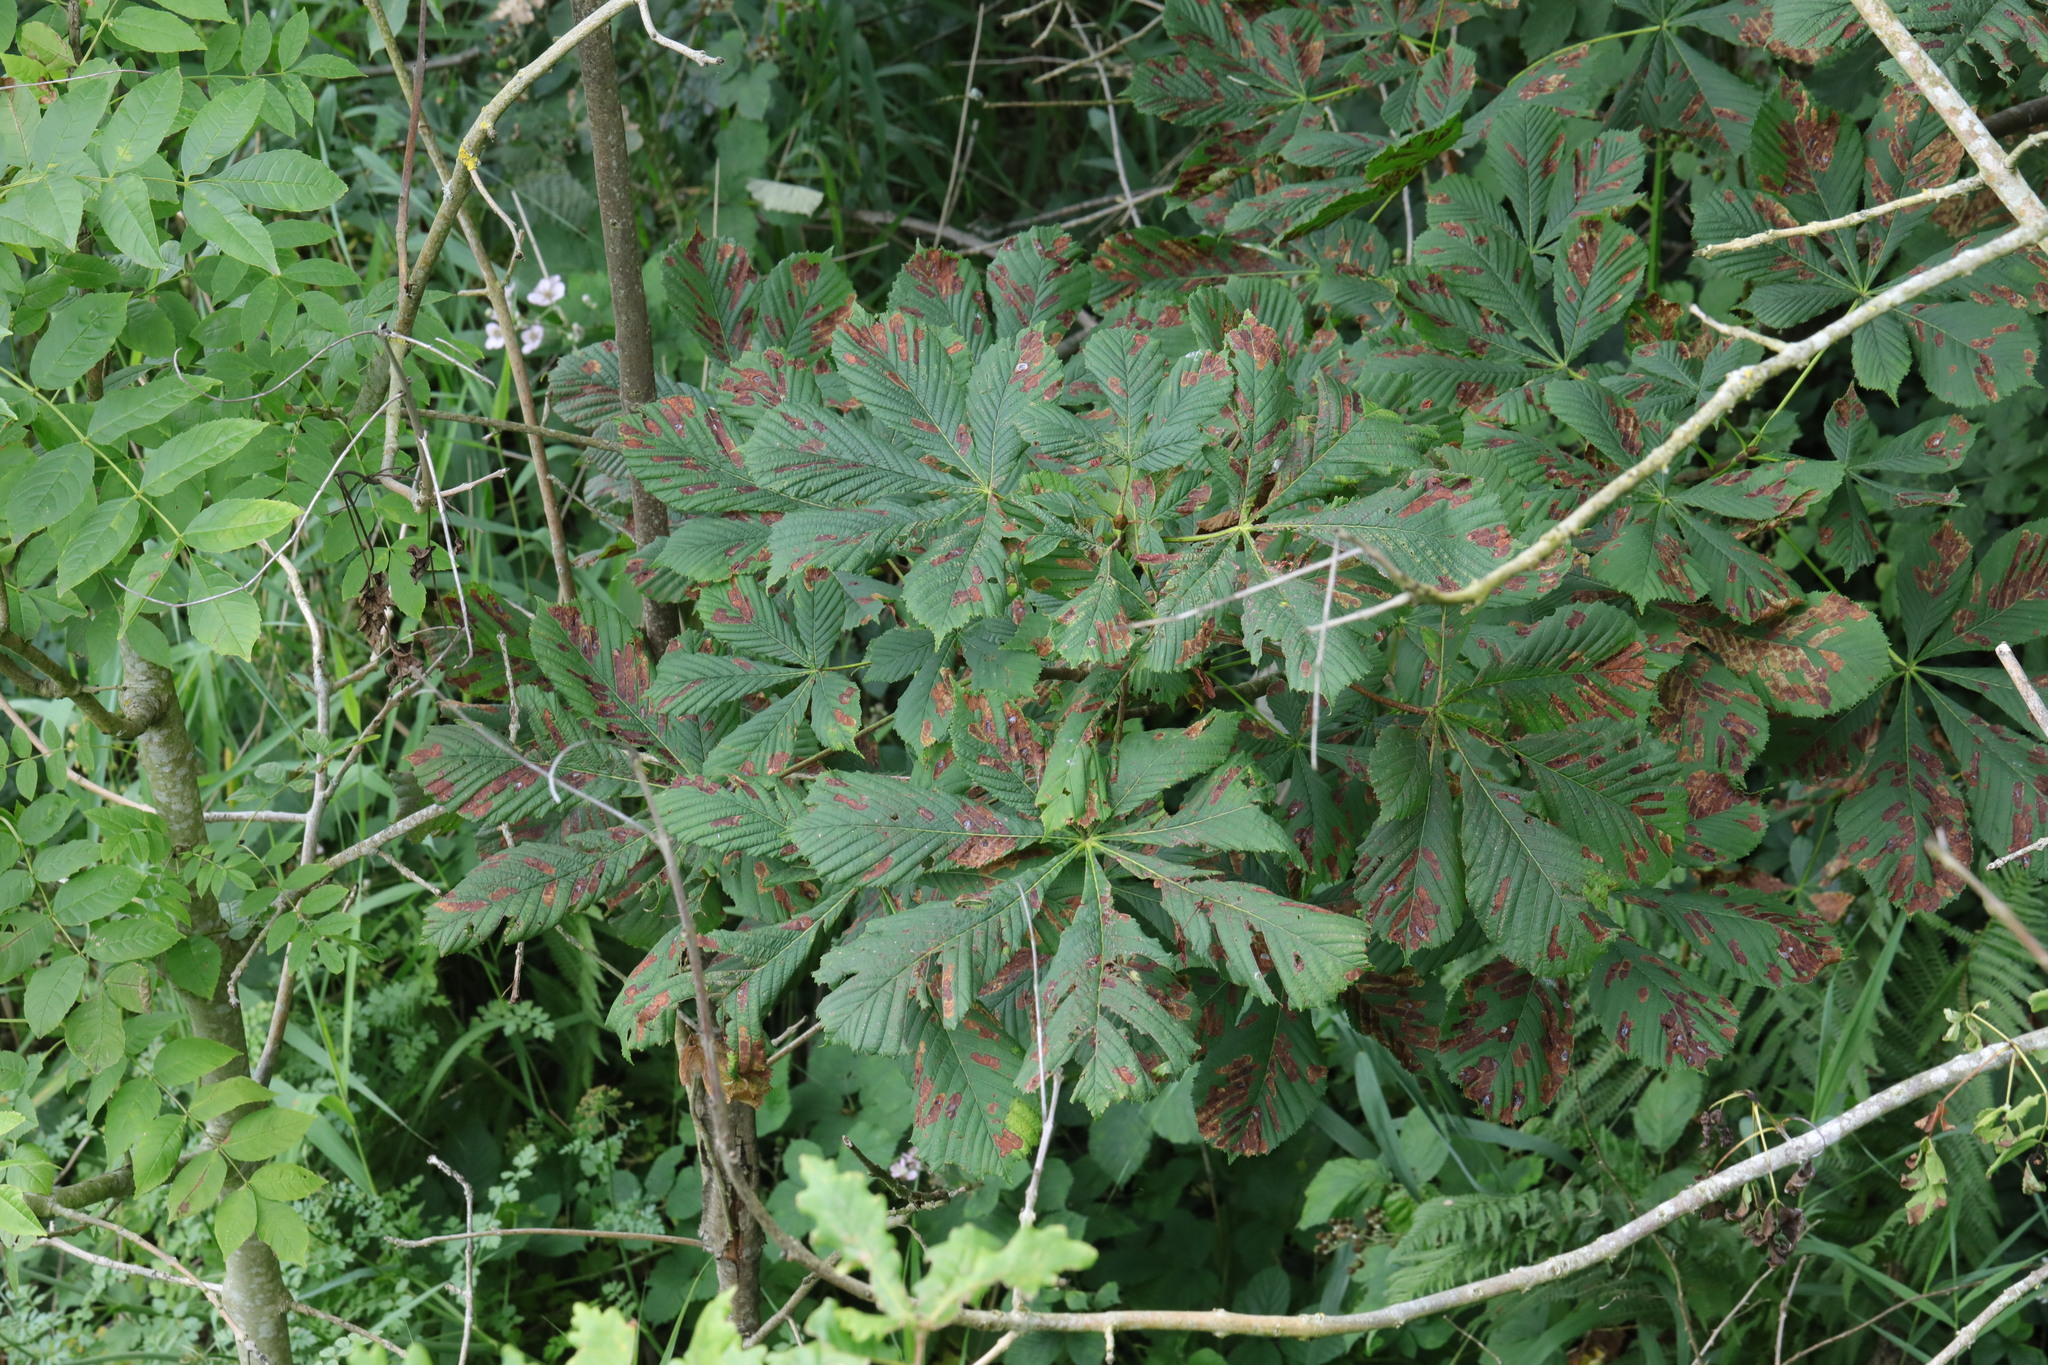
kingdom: Animalia
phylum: Arthropoda
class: Insecta
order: Lepidoptera
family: Gracillariidae
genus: Cameraria
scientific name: Cameraria ohridella
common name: Horse-chestnut leaf-miner
